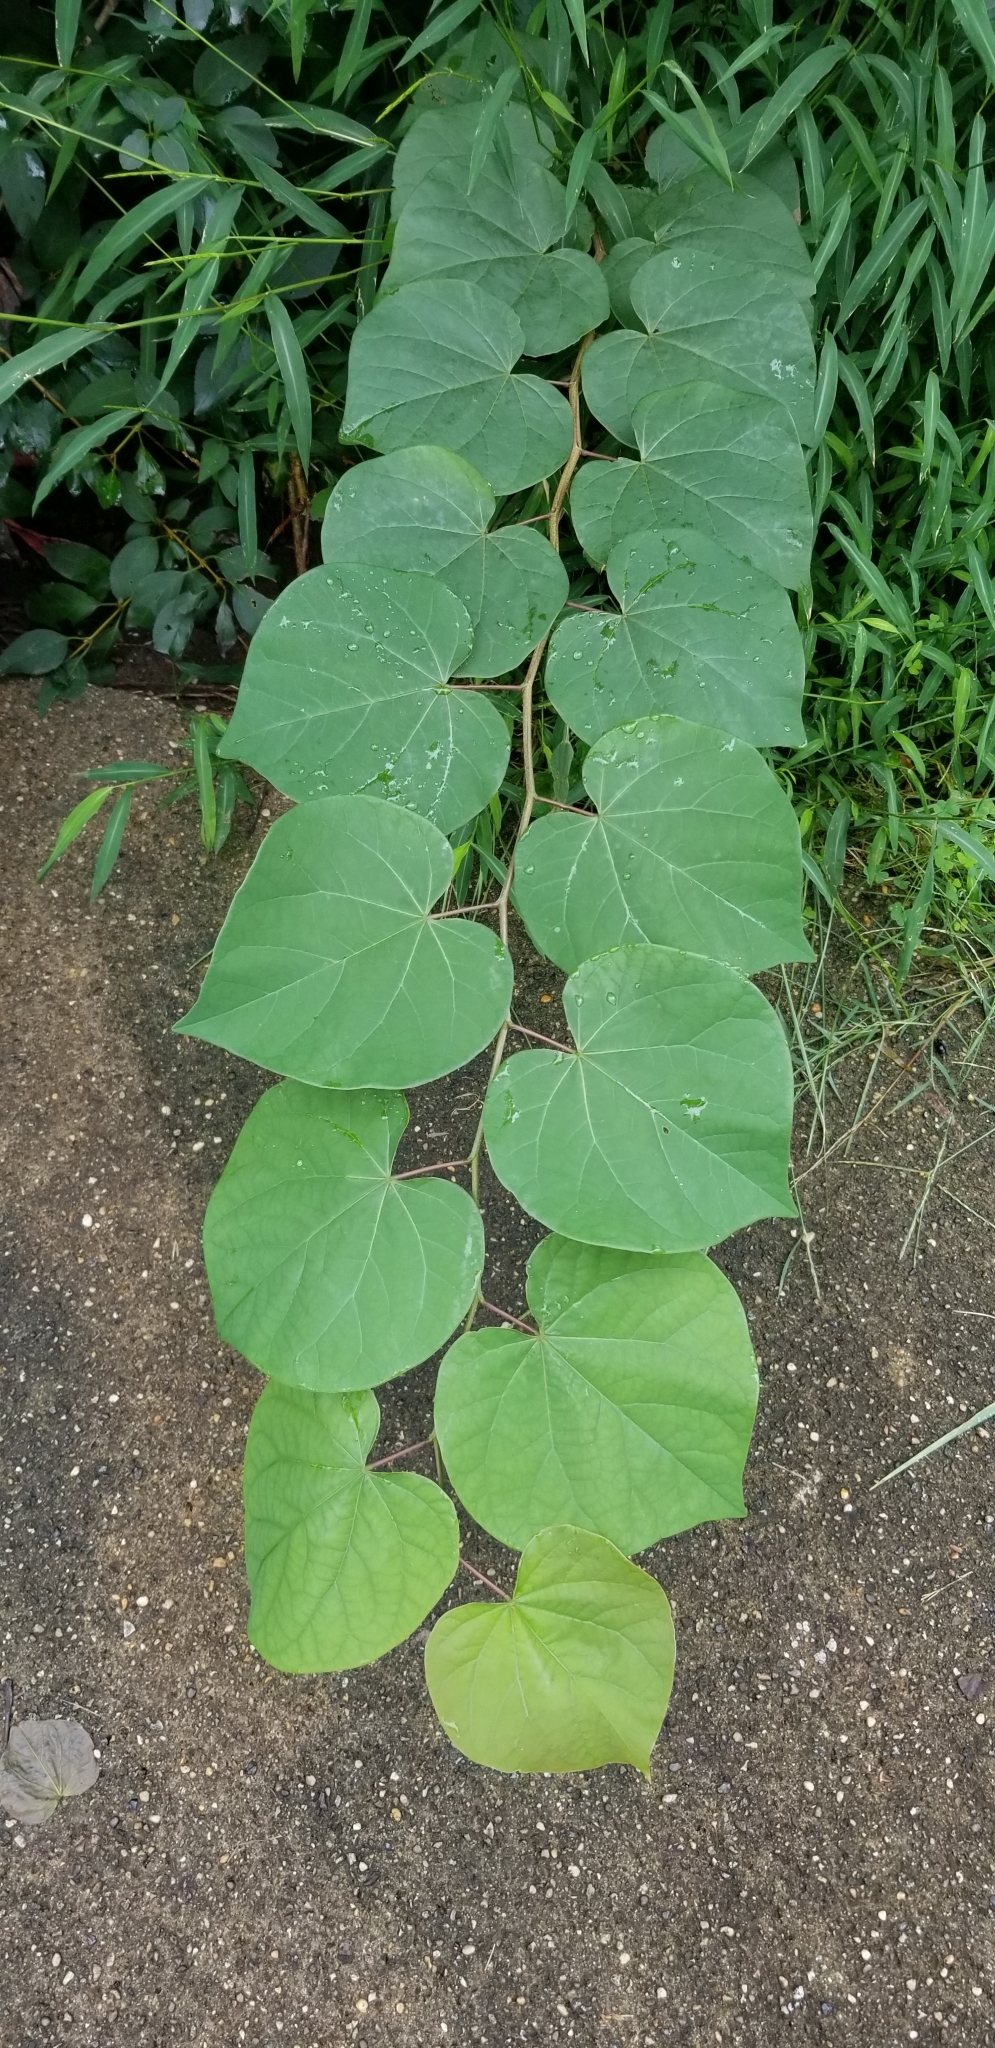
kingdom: Plantae
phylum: Tracheophyta
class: Magnoliopsida
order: Fabales
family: Fabaceae
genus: Cercis
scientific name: Cercis canadensis
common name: Eastern redbud
